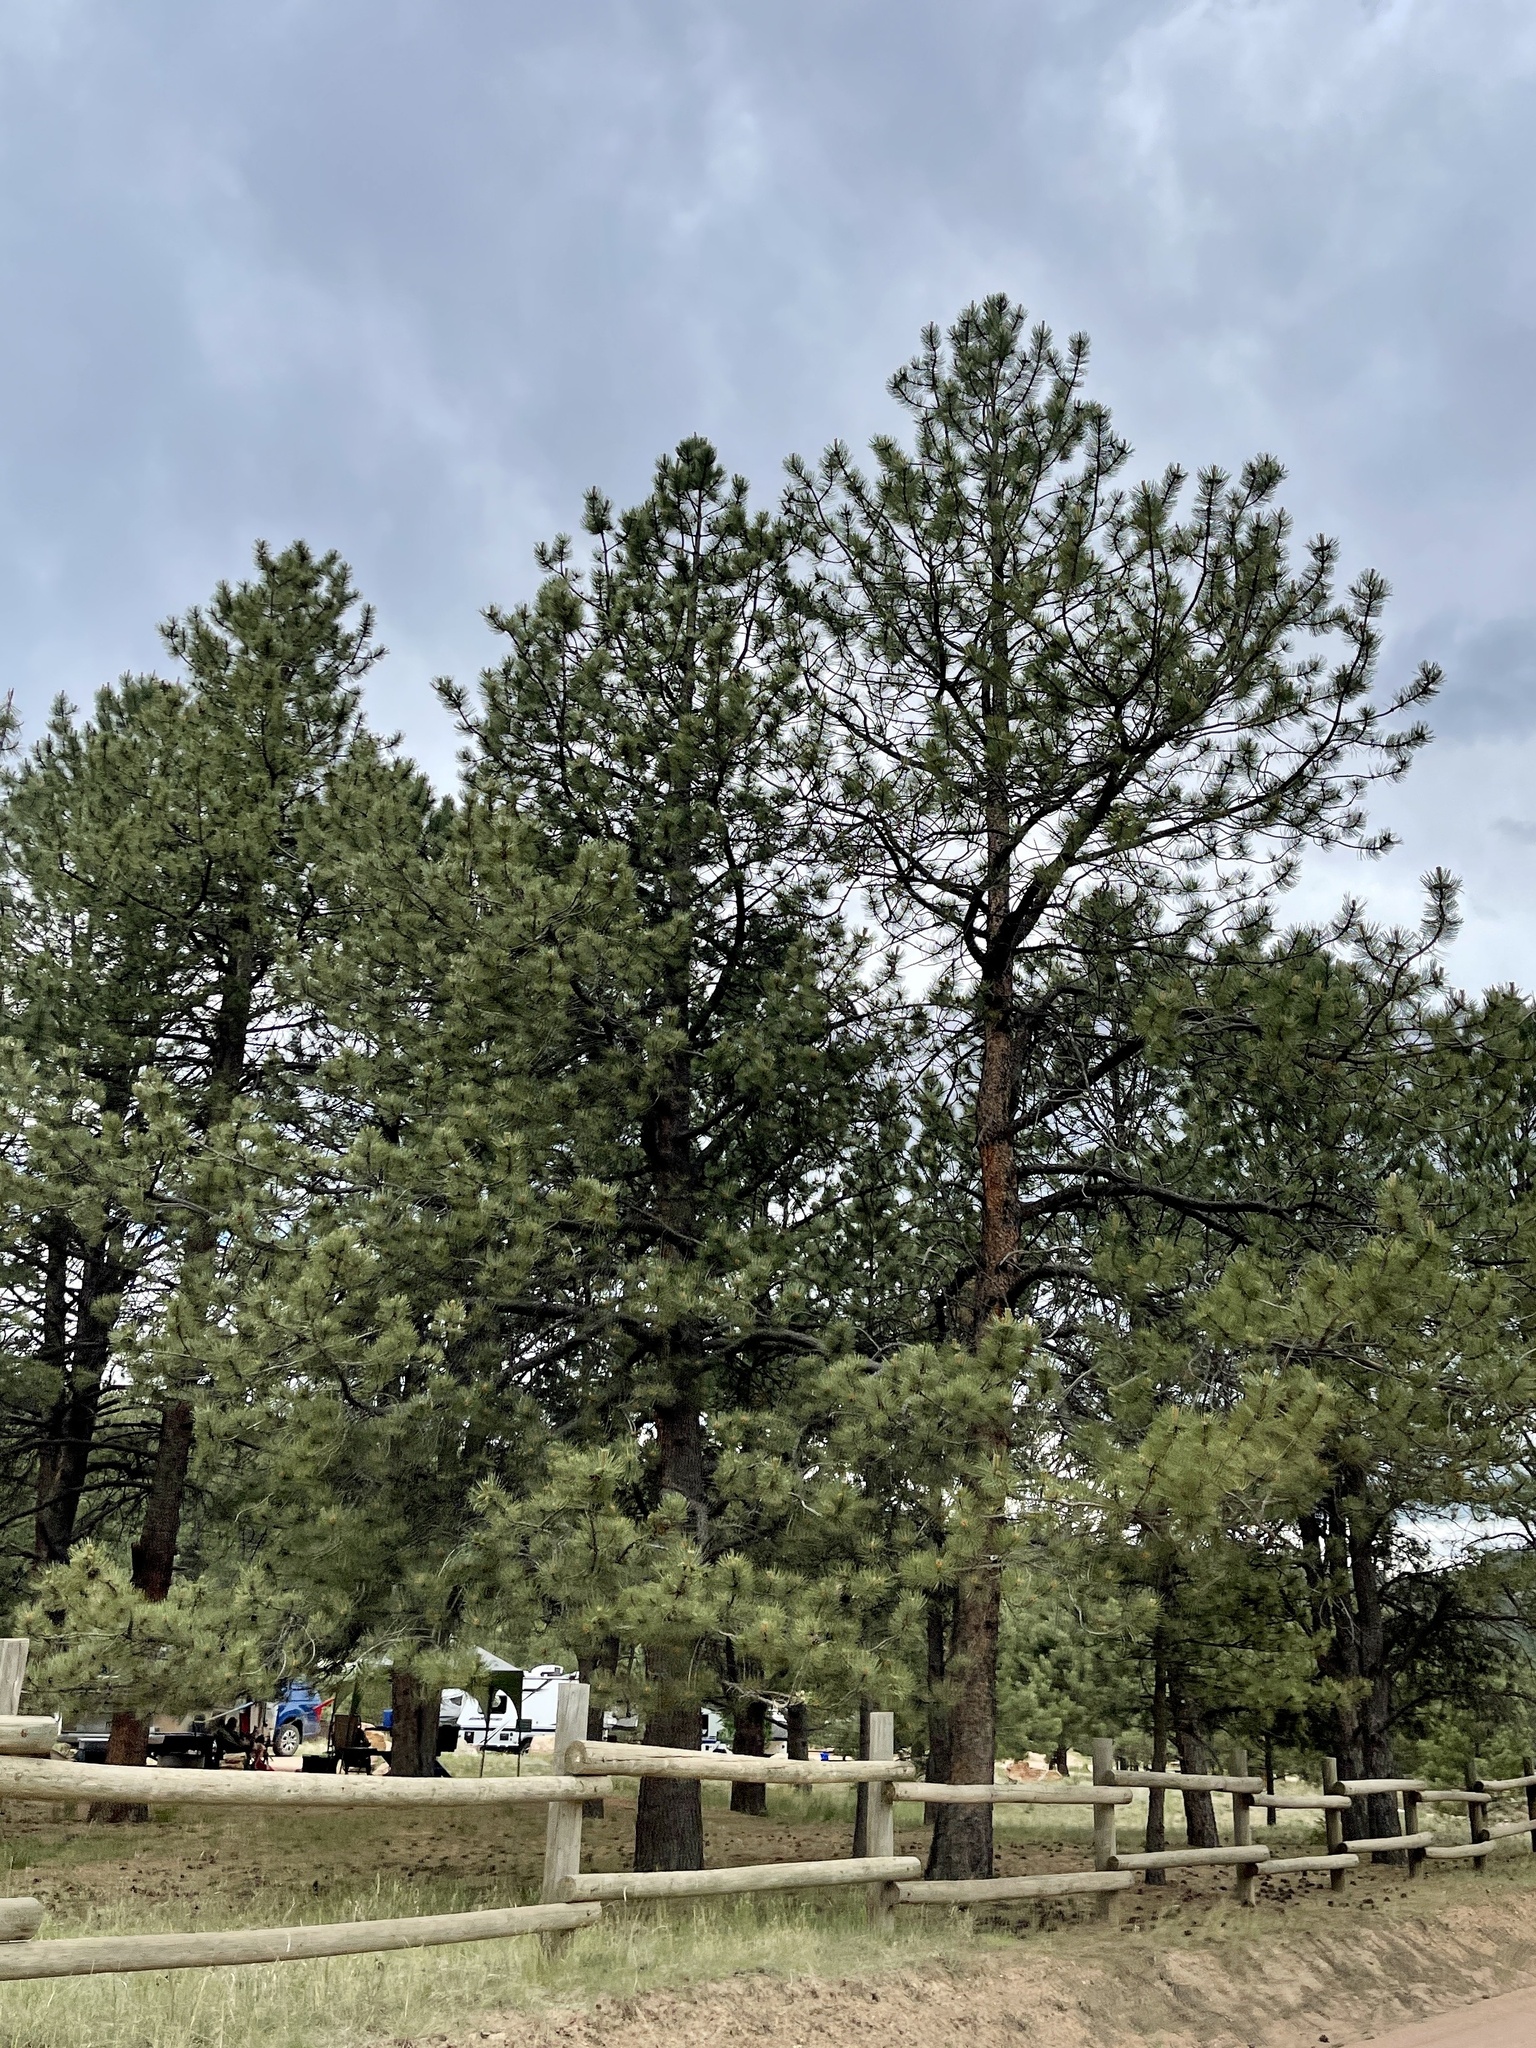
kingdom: Plantae
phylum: Tracheophyta
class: Pinopsida
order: Pinales
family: Pinaceae
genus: Pinus
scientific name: Pinus ponderosa
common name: Western yellow-pine
